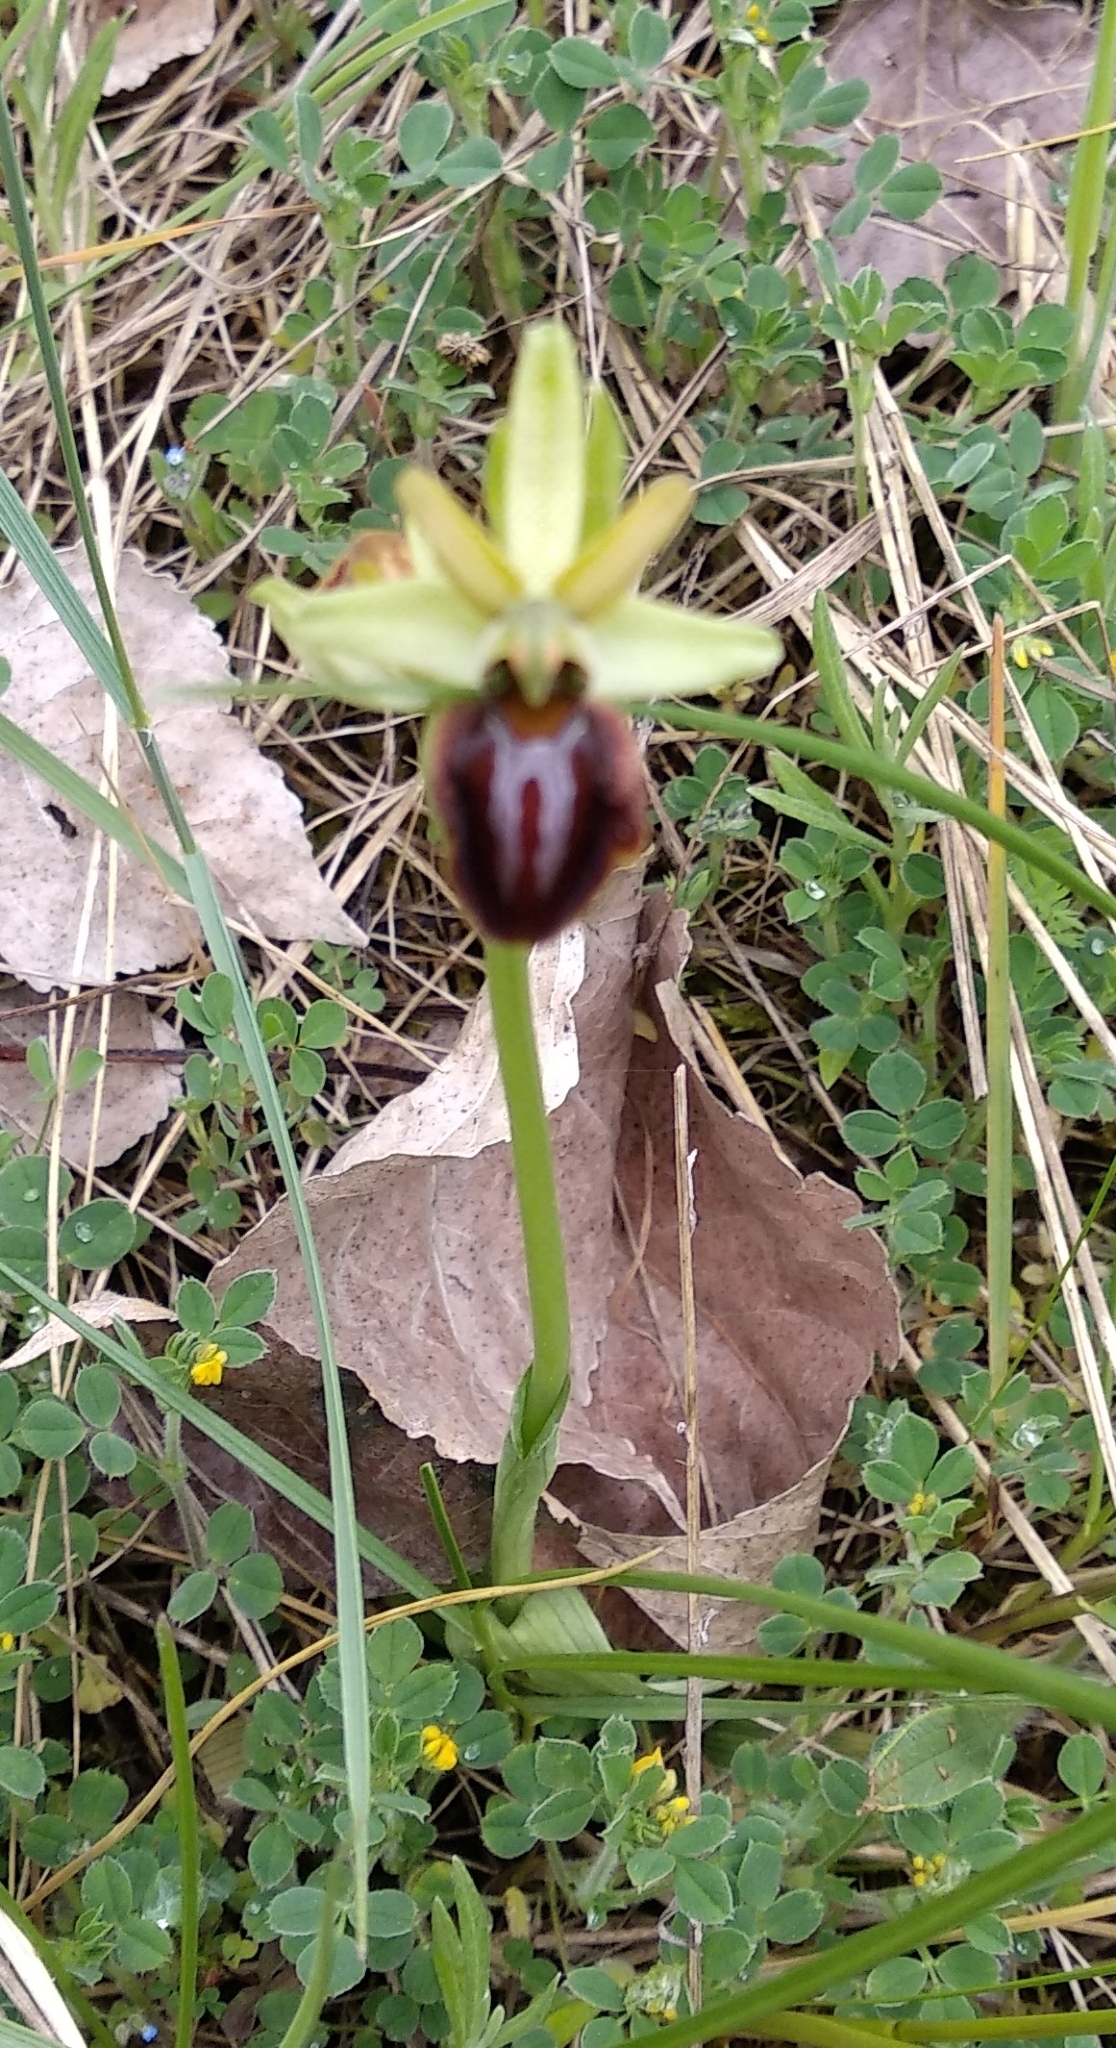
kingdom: Plantae
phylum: Tracheophyta
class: Liliopsida
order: Asparagales
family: Orchidaceae
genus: Ophrys
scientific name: Ophrys sphegodes
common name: Early spider-orchid
